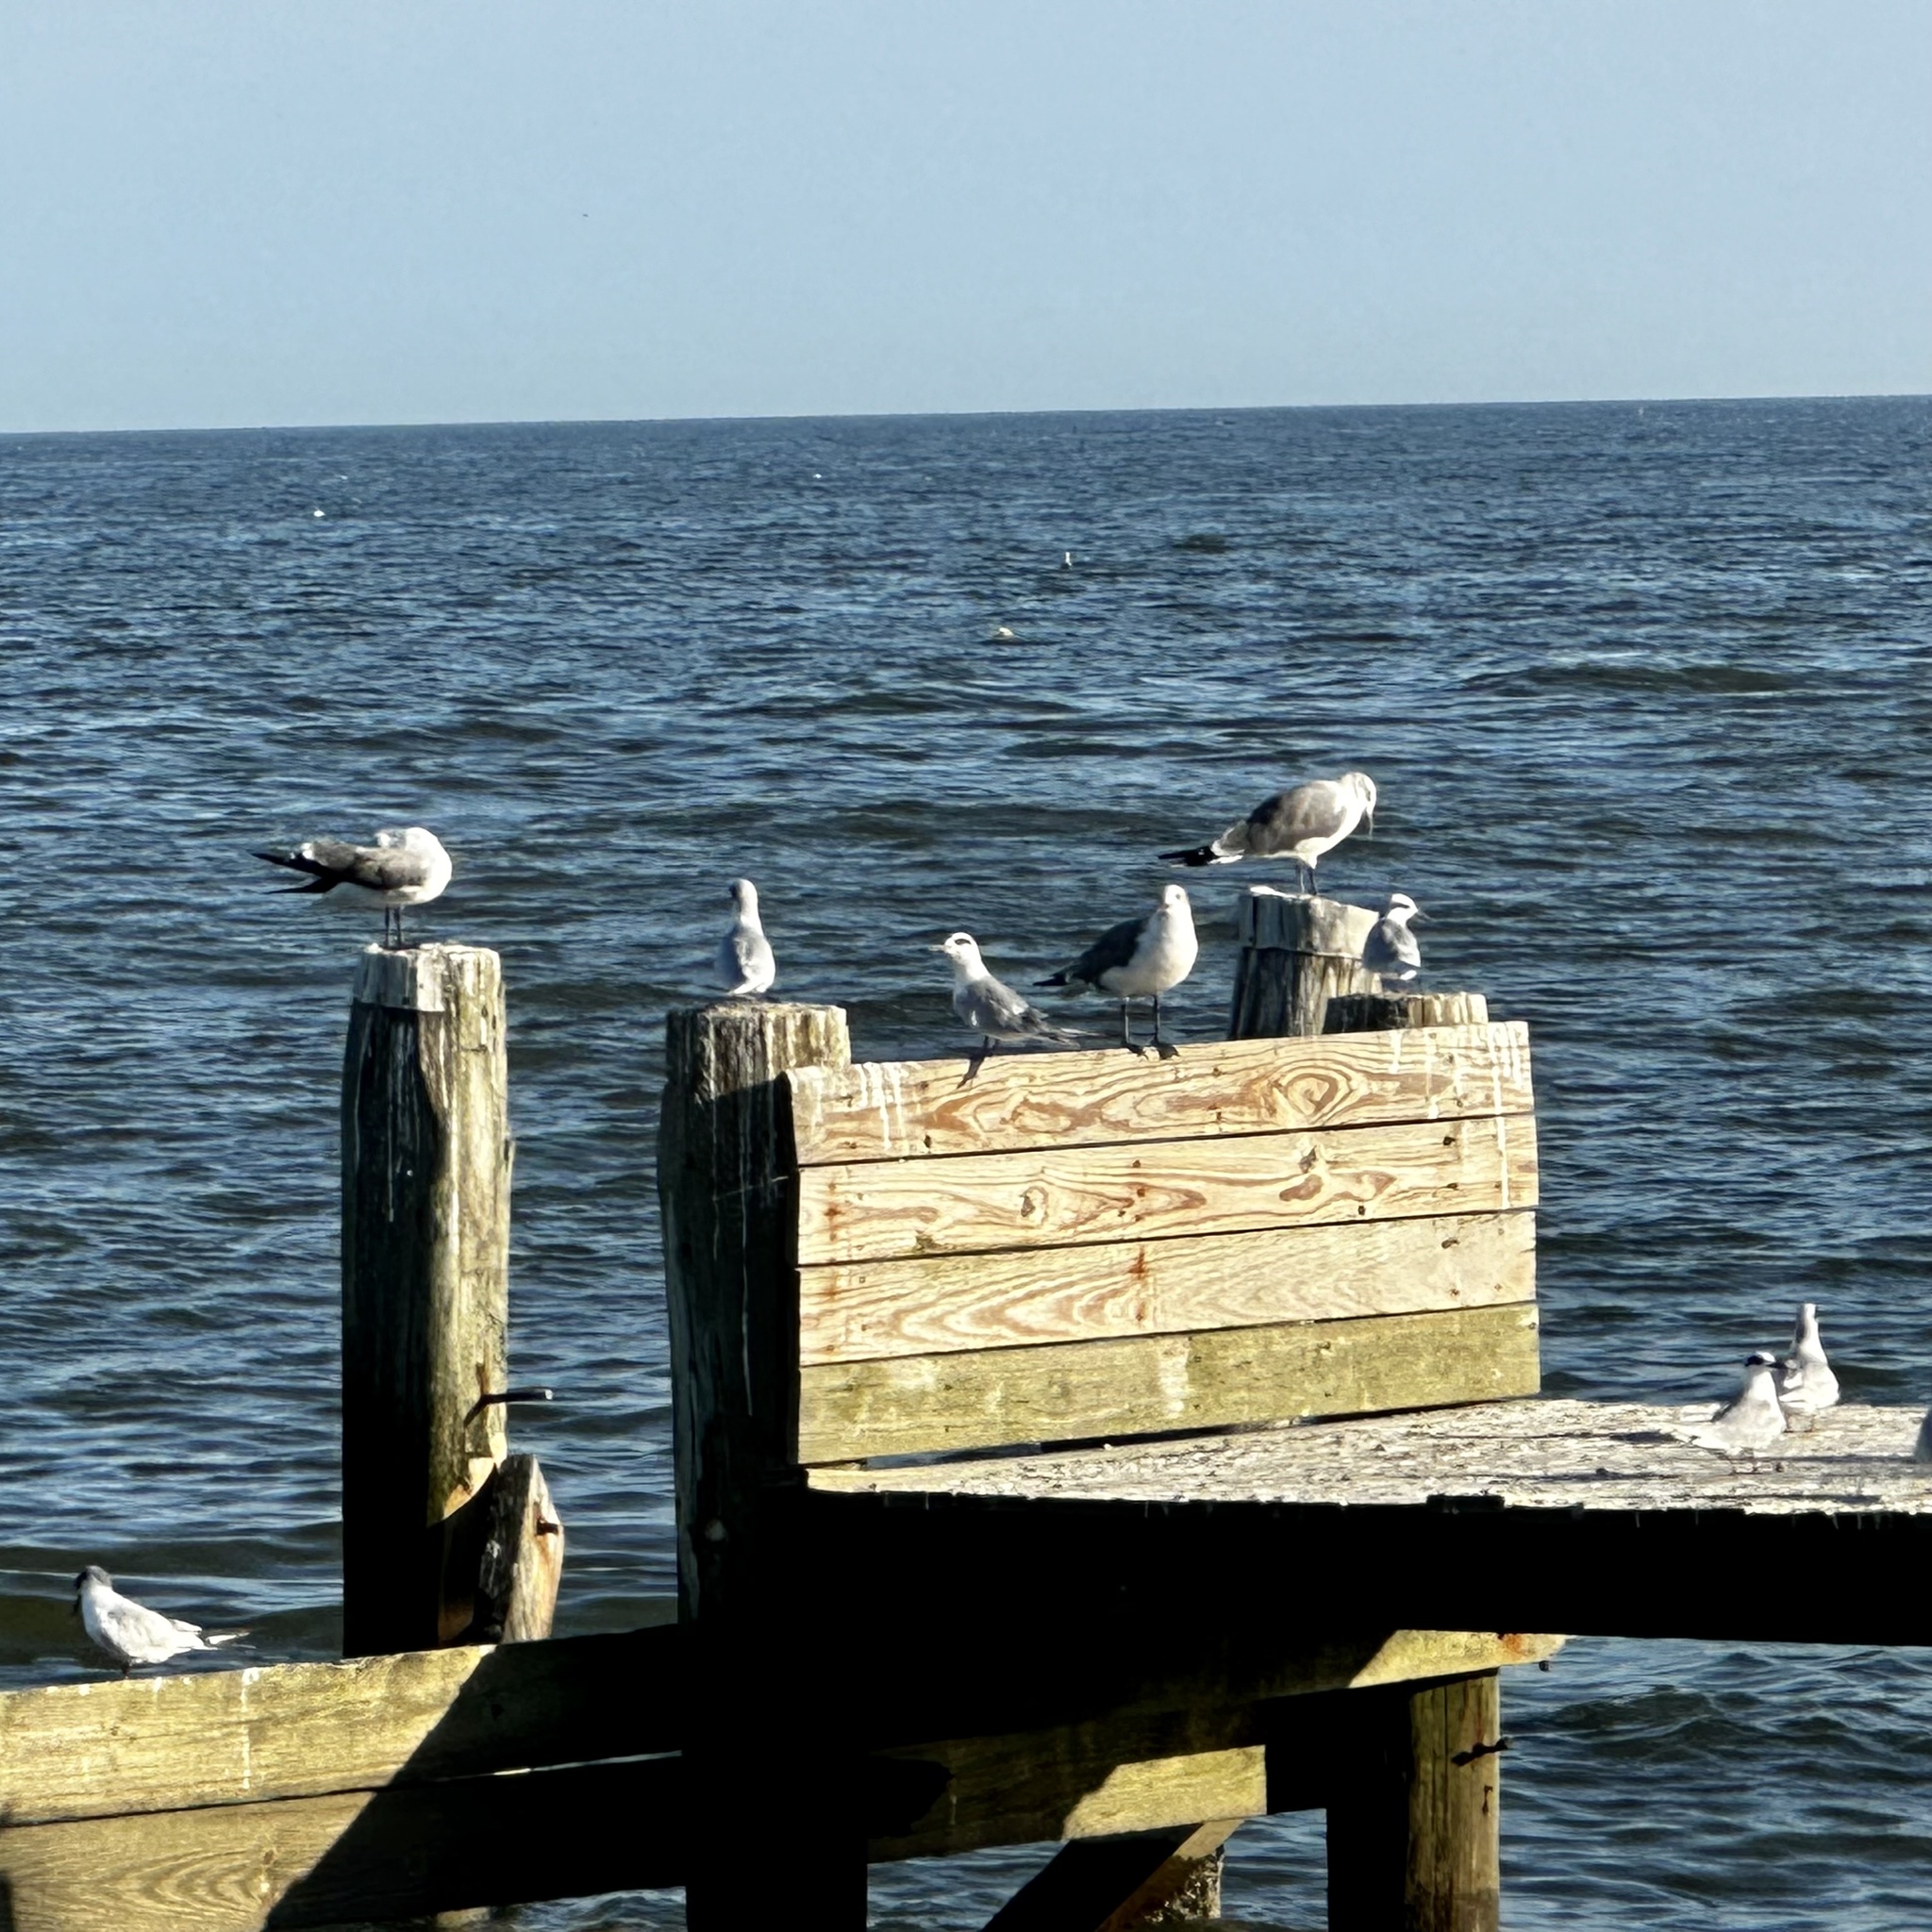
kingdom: Animalia
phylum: Chordata
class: Aves
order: Charadriiformes
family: Laridae
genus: Leucophaeus
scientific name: Leucophaeus atricilla
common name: Laughing gull
